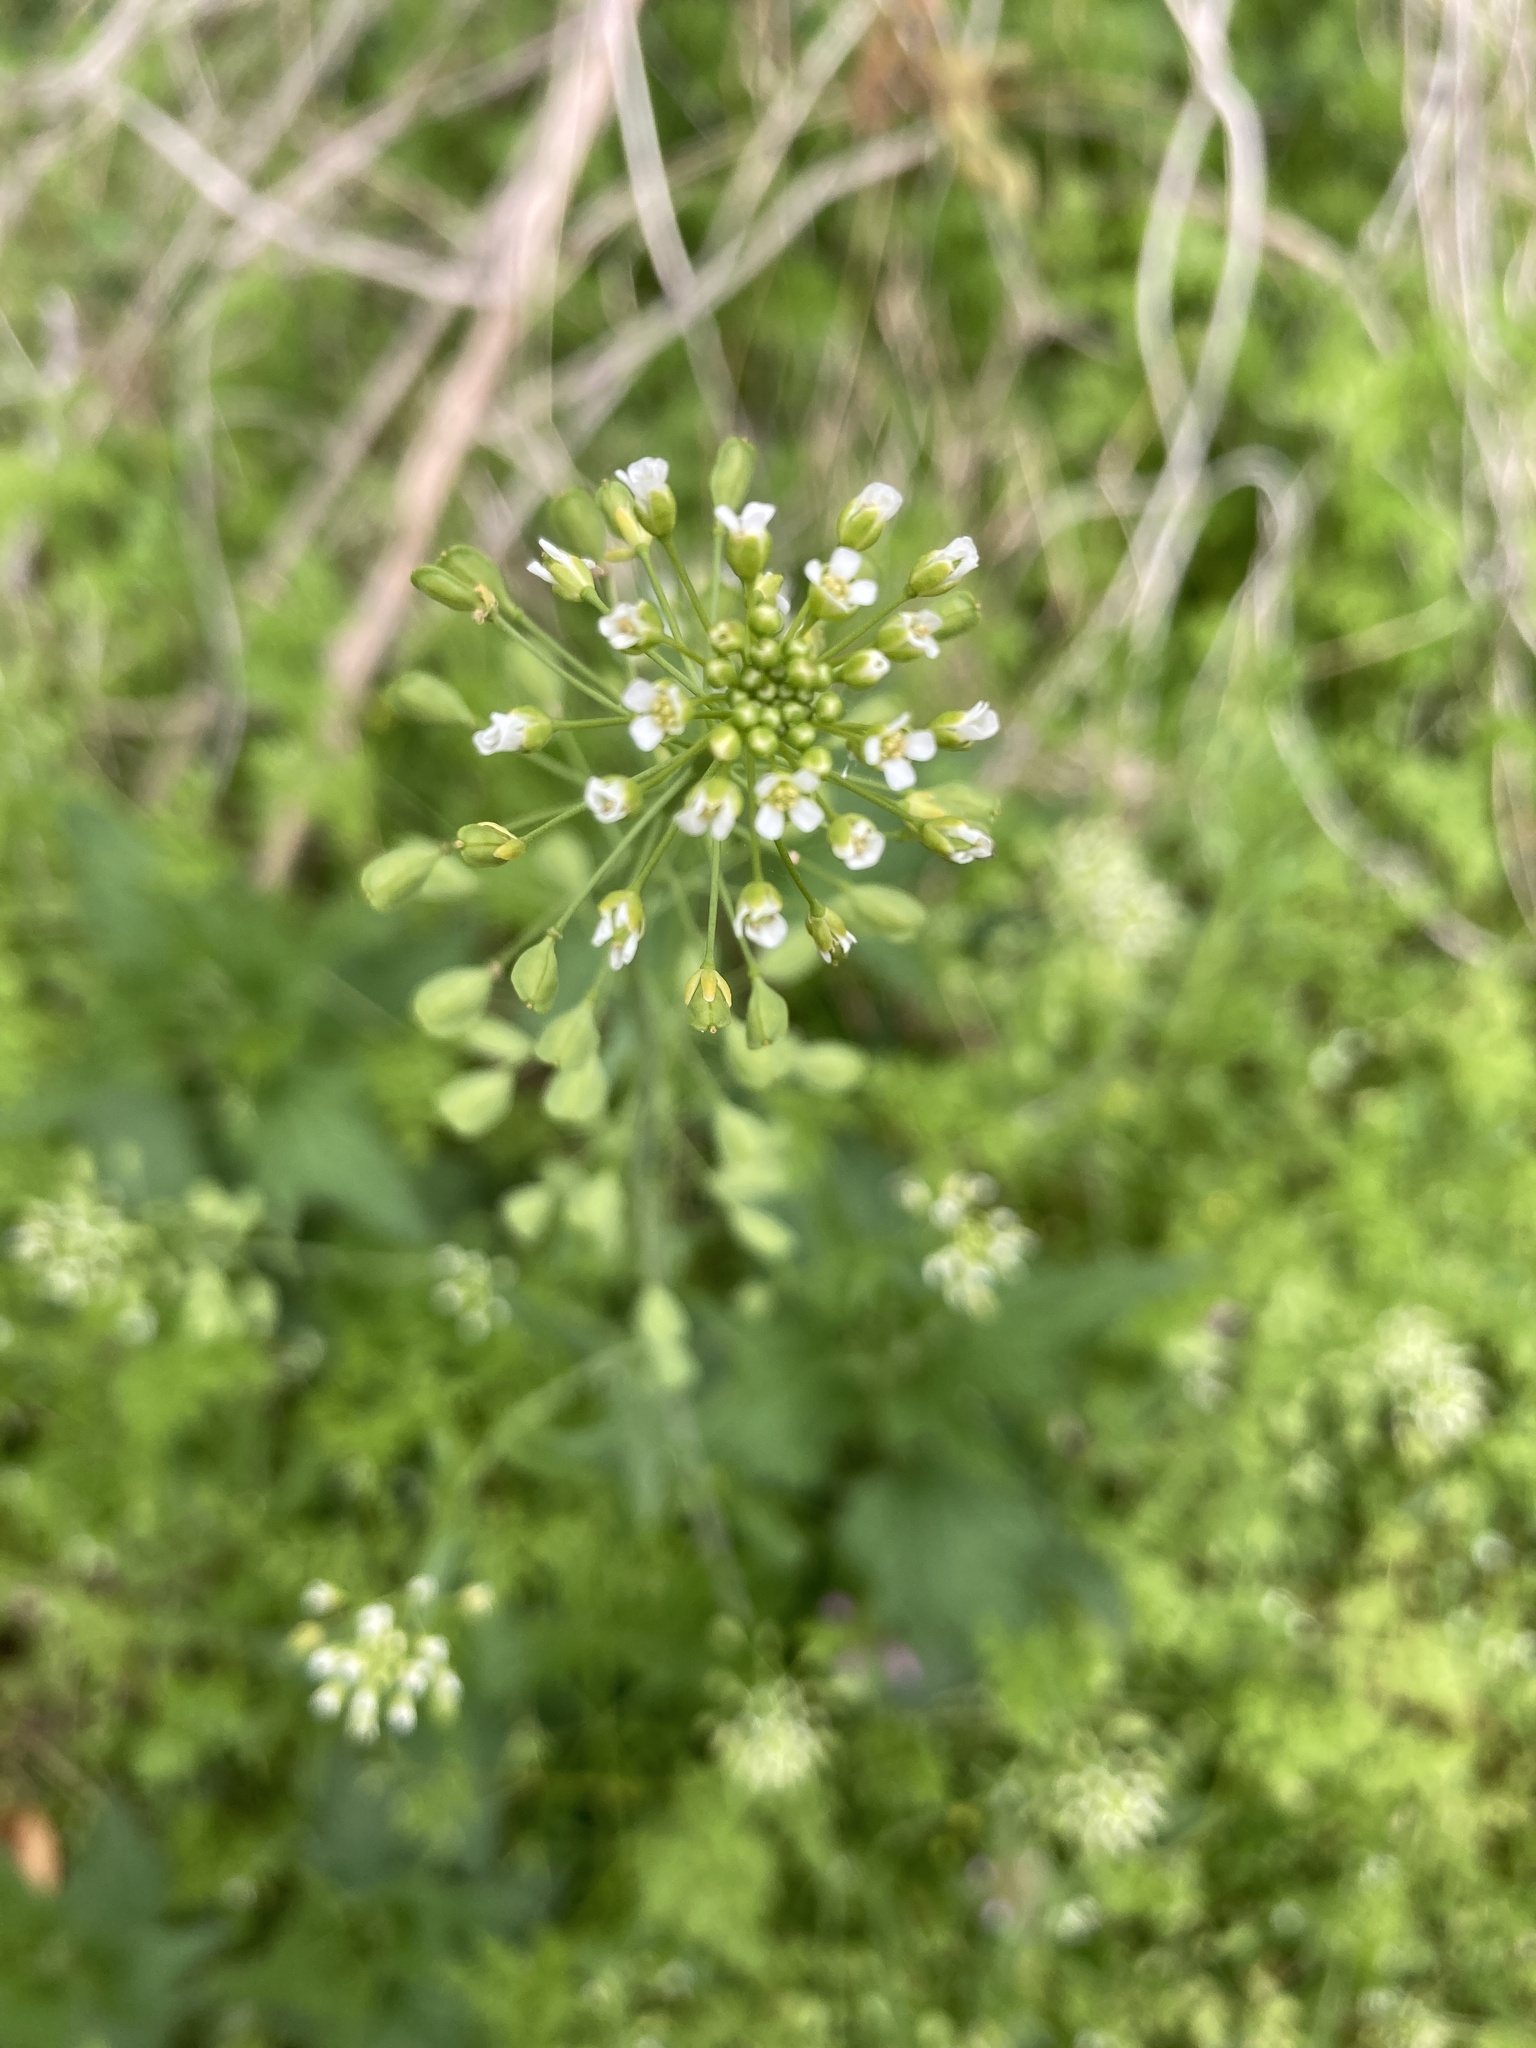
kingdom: Plantae
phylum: Tracheophyta
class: Magnoliopsida
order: Brassicales
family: Brassicaceae
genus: Mummenhoffia
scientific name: Mummenhoffia alliacea
